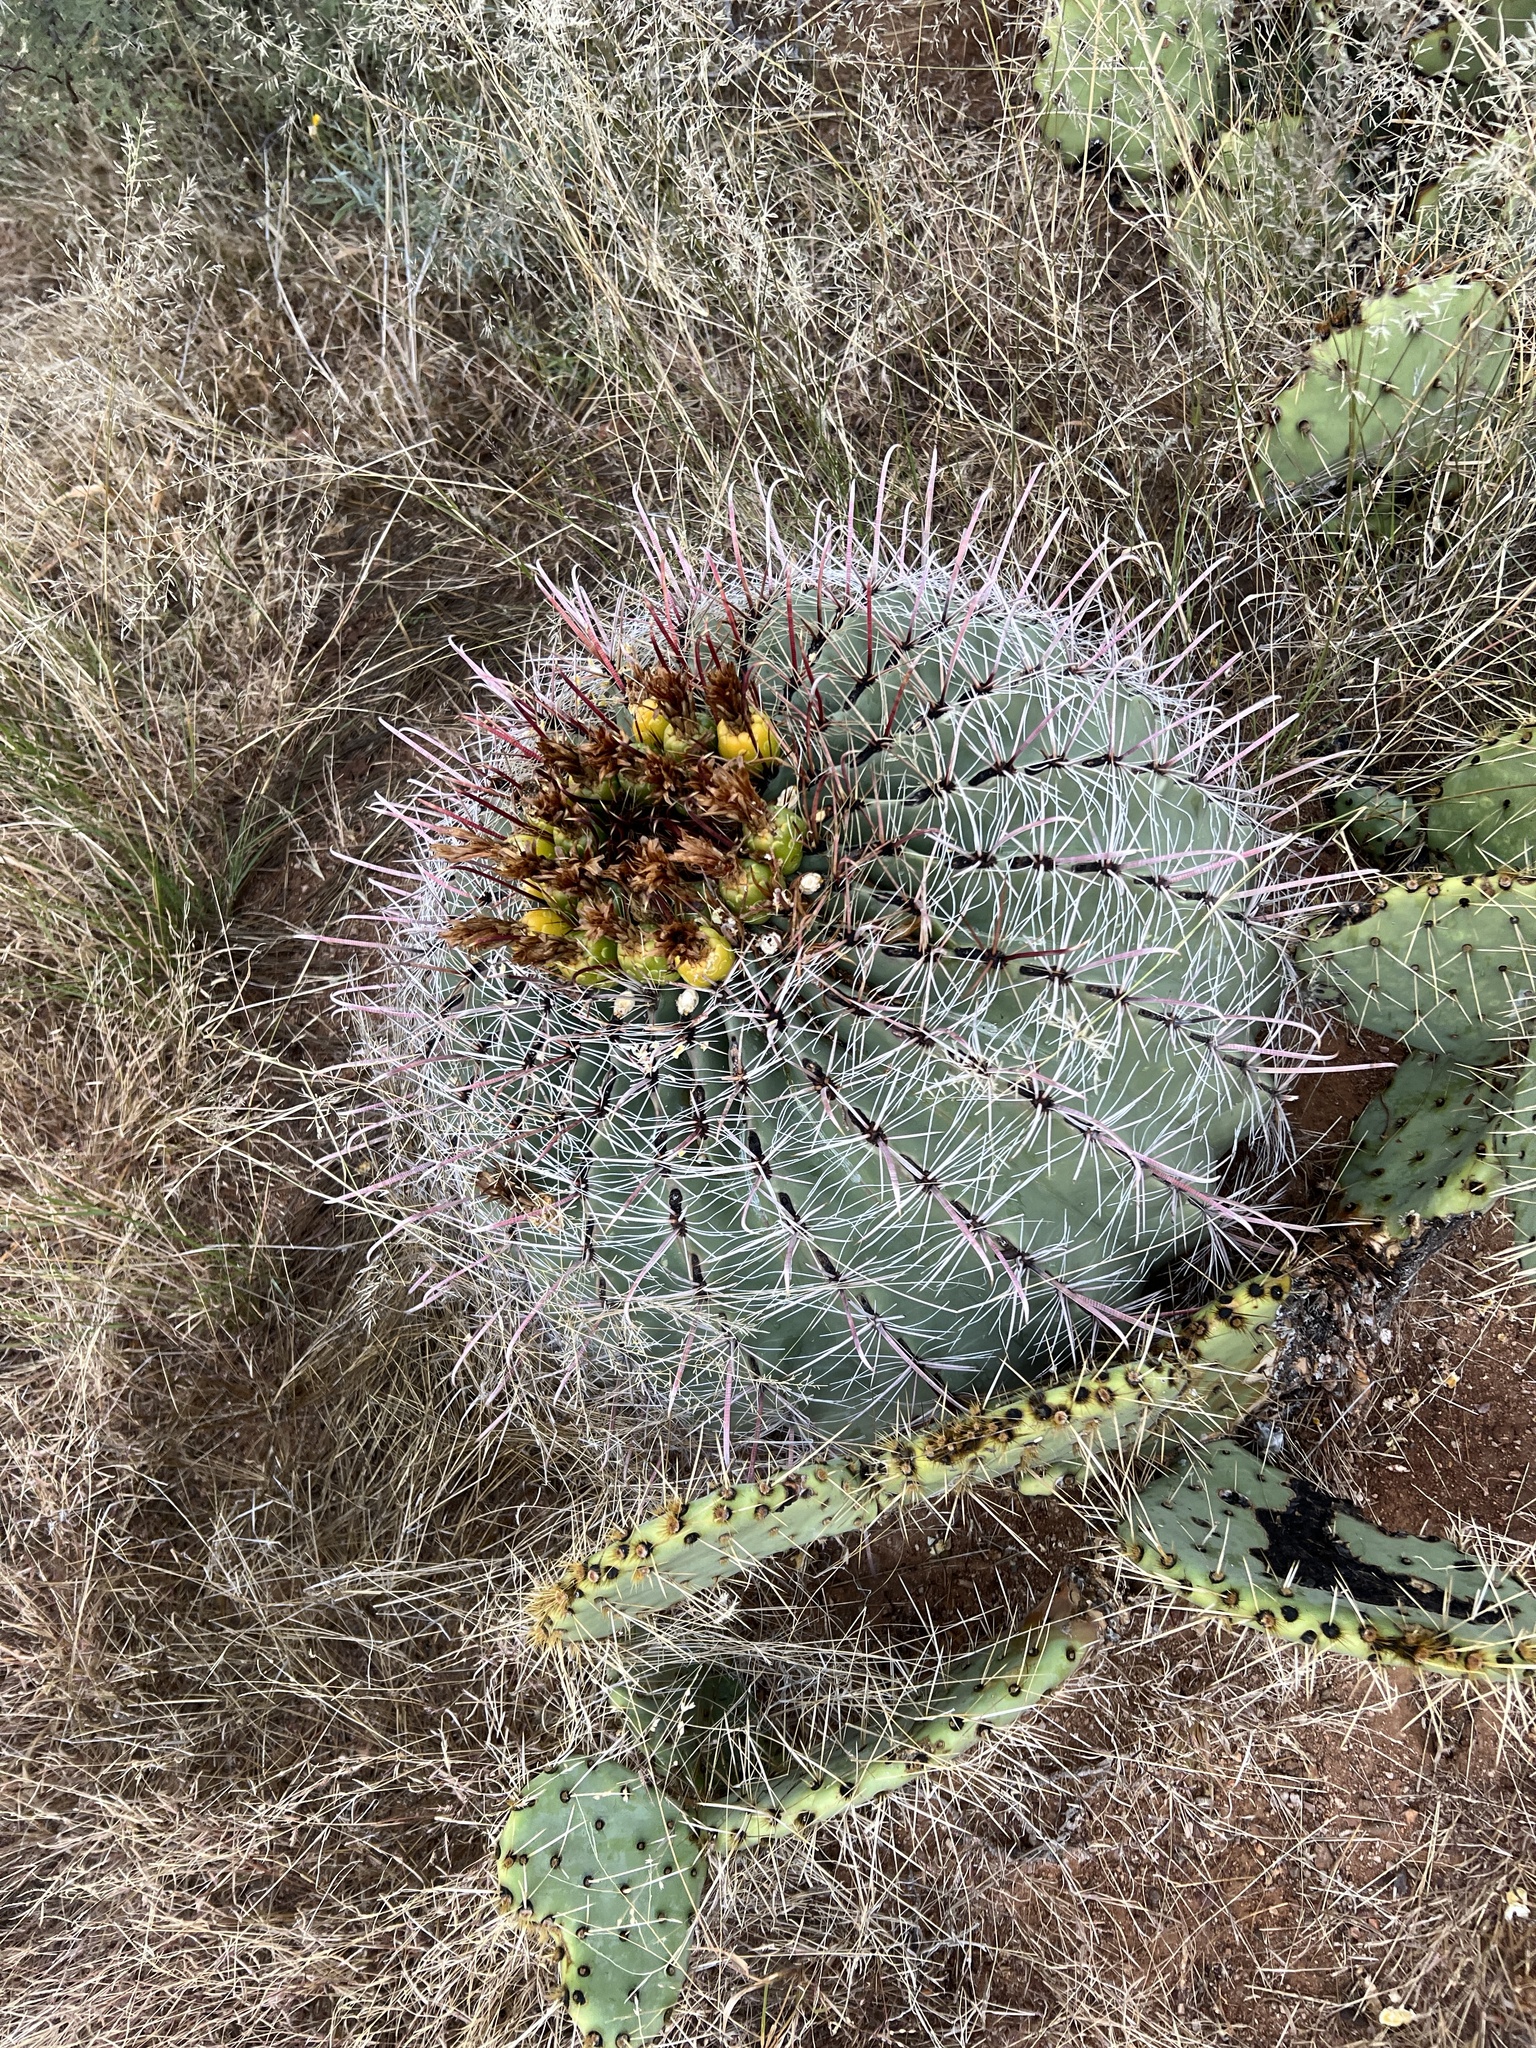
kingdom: Plantae
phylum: Tracheophyta
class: Magnoliopsida
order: Caryophyllales
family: Cactaceae
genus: Ferocactus
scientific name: Ferocactus wislizeni
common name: Candy barrel cactus
